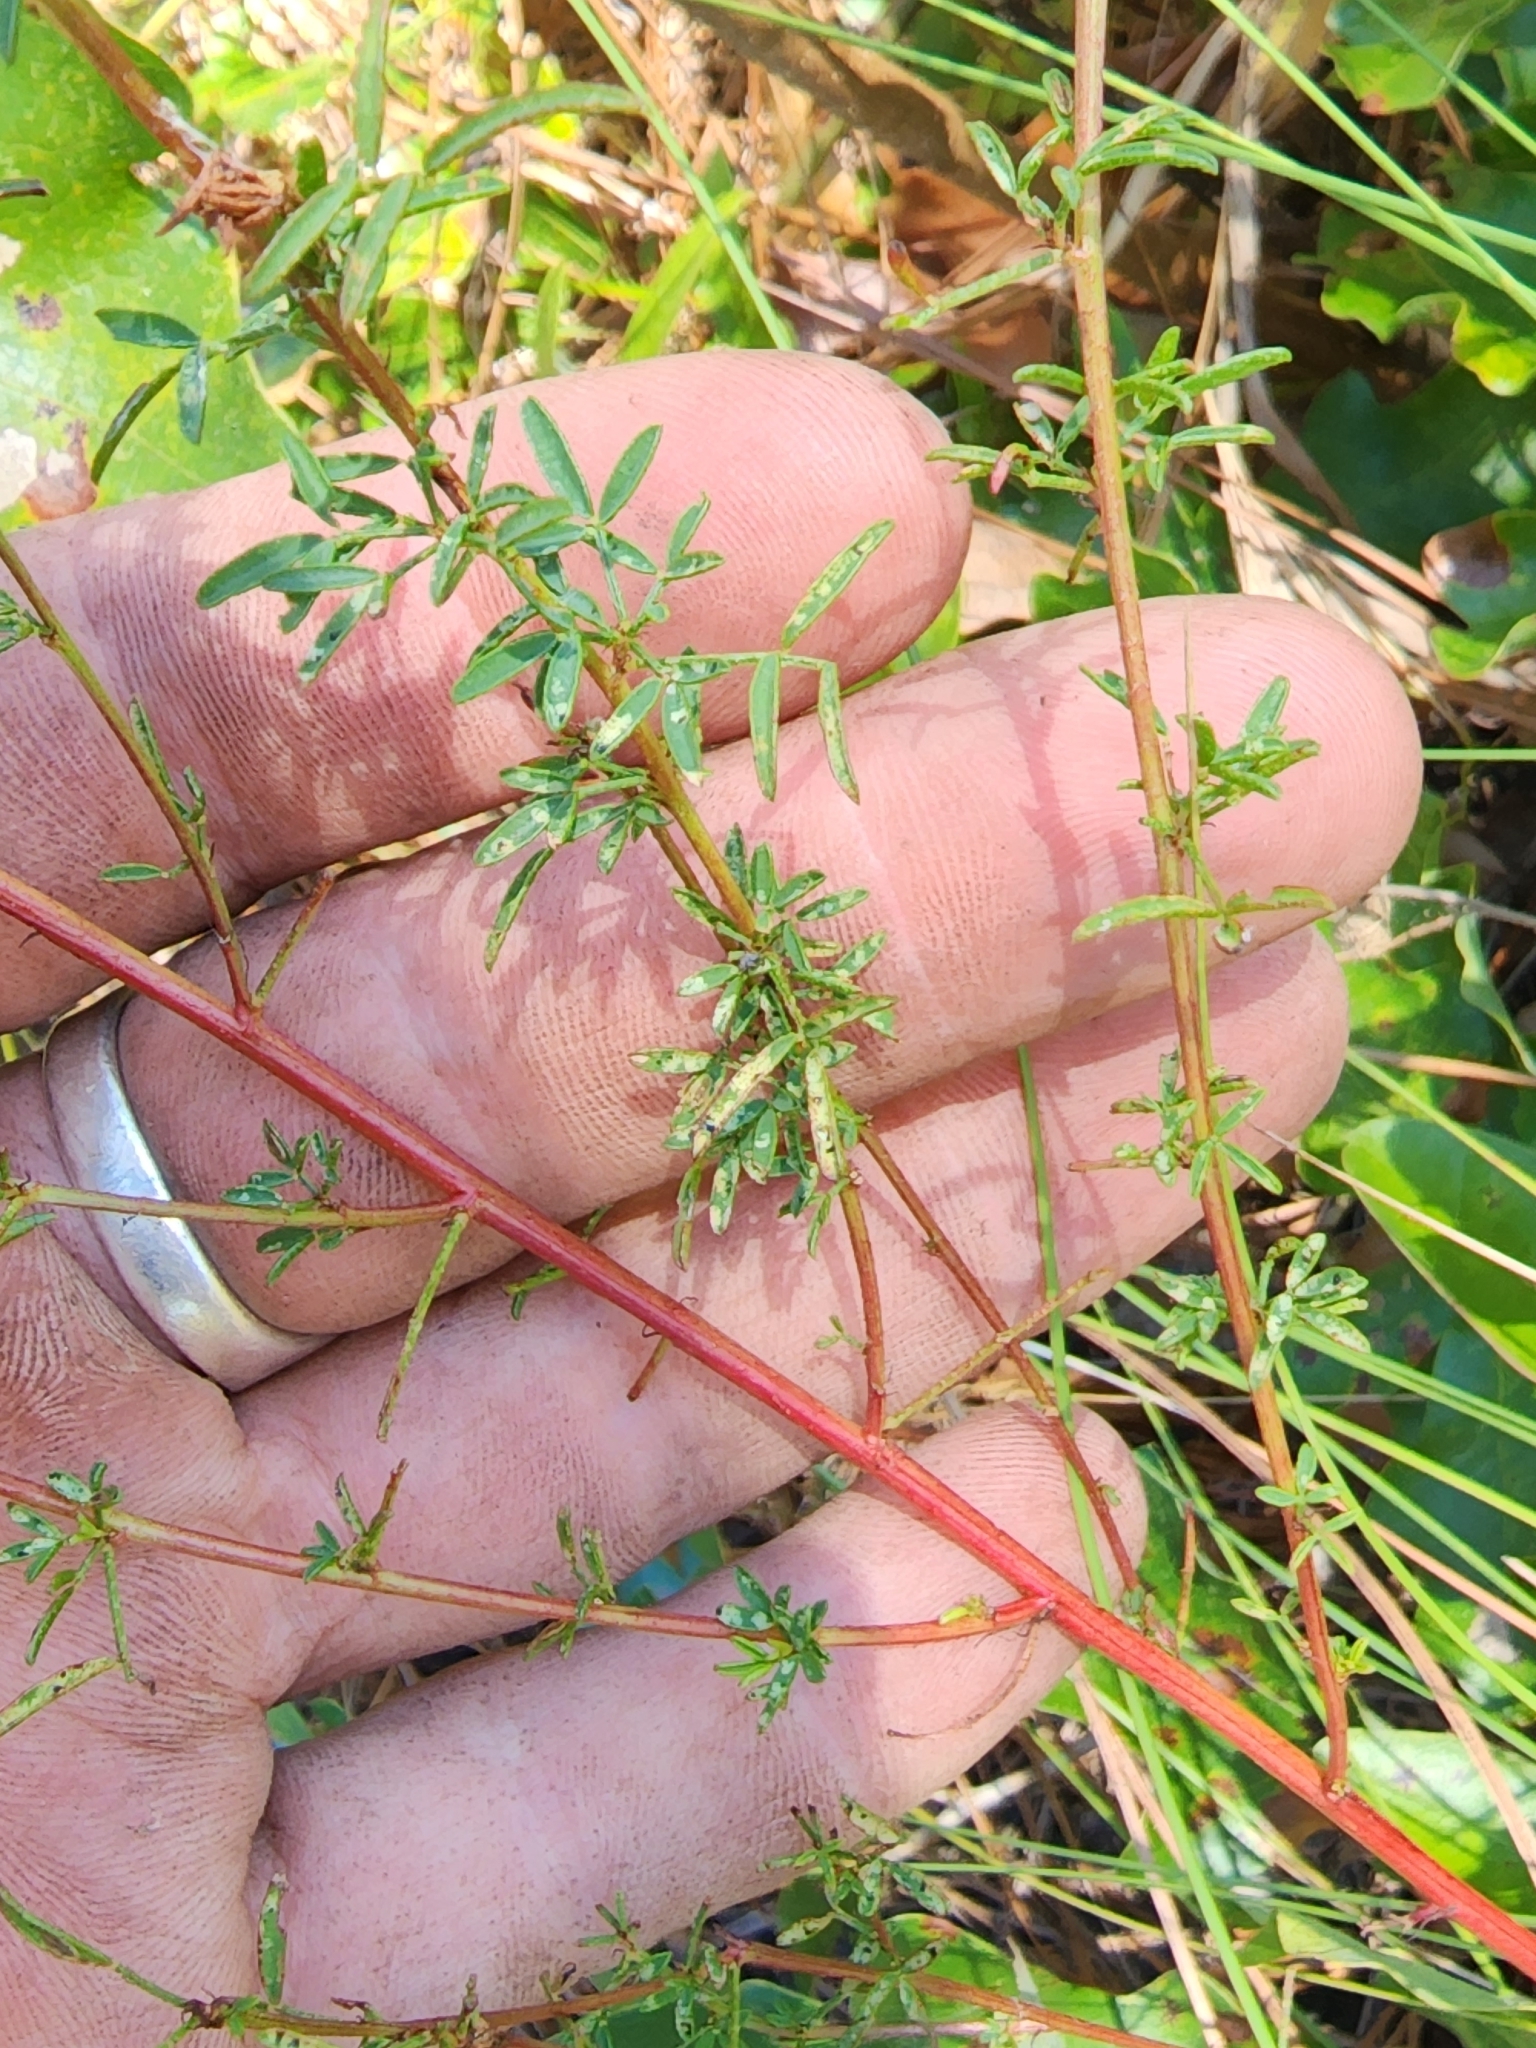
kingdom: Plantae
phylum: Tracheophyta
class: Magnoliopsida
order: Fabales
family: Fabaceae
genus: Dalea
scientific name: Dalea carnea
